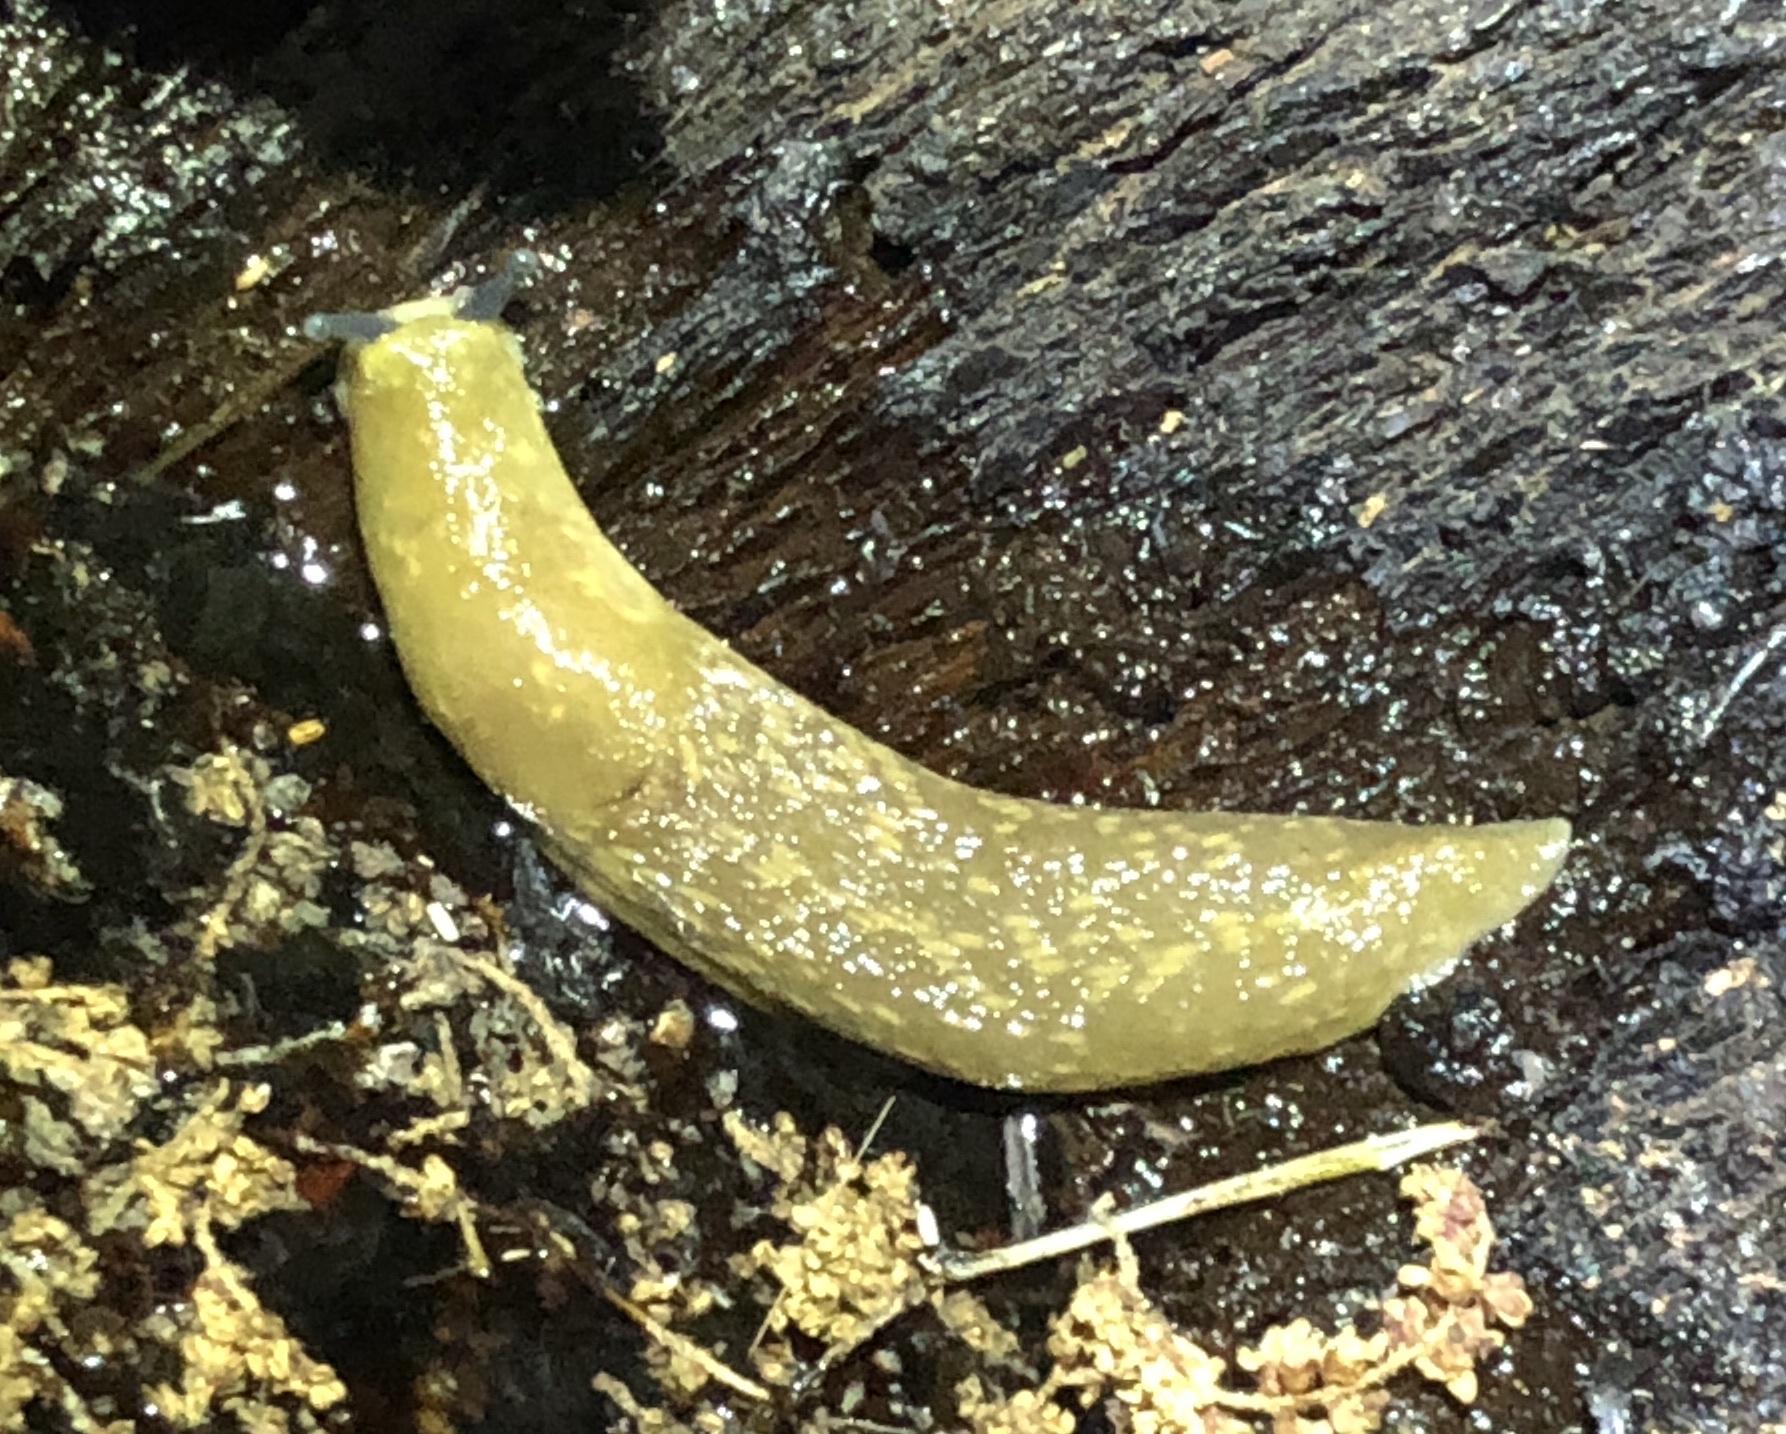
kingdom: Animalia
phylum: Mollusca
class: Gastropoda
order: Stylommatophora
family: Limacidae
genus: Limacus
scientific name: Limacus flavus
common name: Yellow gardenslug
